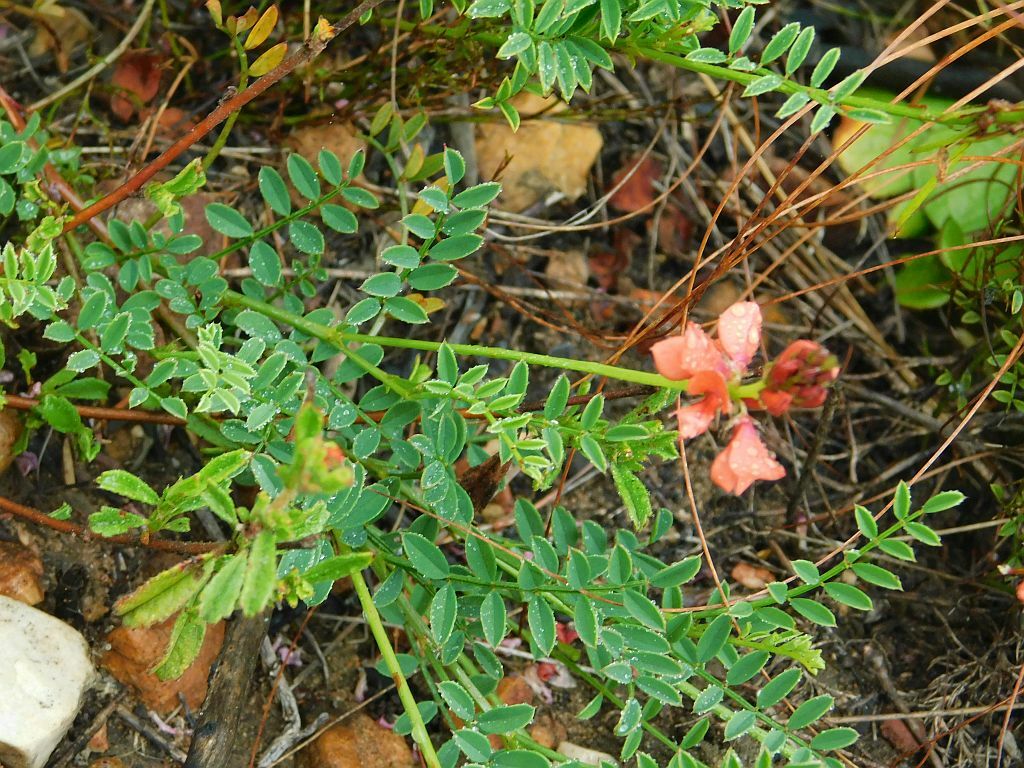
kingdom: Plantae
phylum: Tracheophyta
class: Magnoliopsida
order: Fabales
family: Fabaceae
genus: Indigofera
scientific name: Indigofera capillaris
